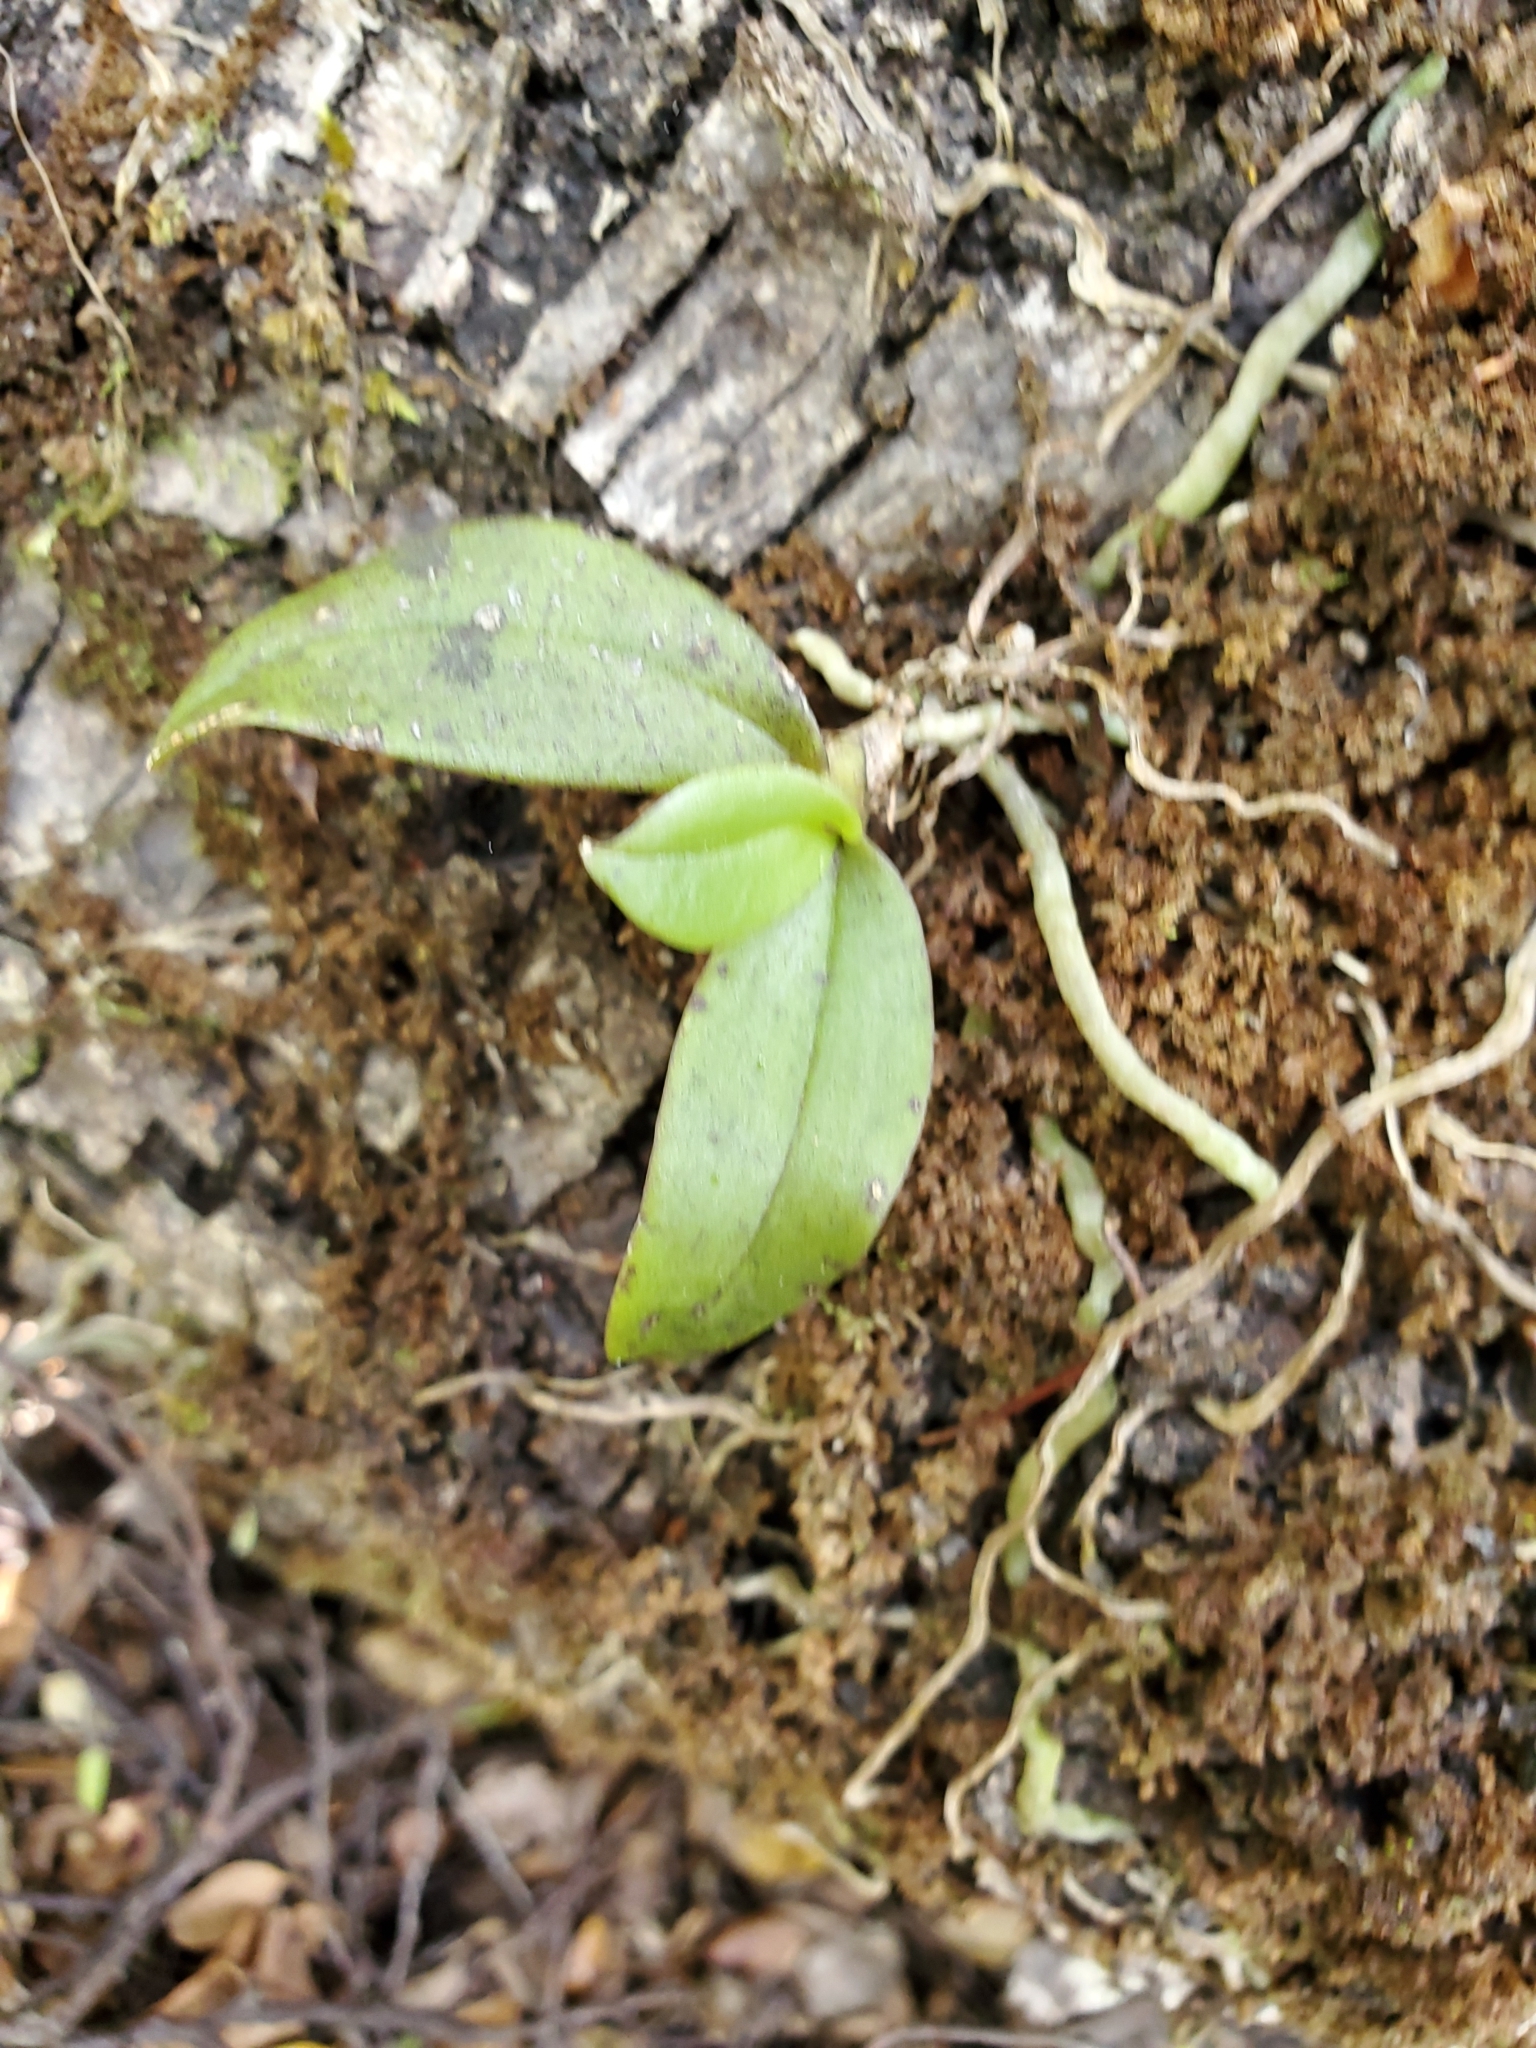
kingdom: Plantae
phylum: Tracheophyta
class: Liliopsida
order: Asparagales
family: Orchidaceae
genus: Drymoanthus
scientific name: Drymoanthus adversus
